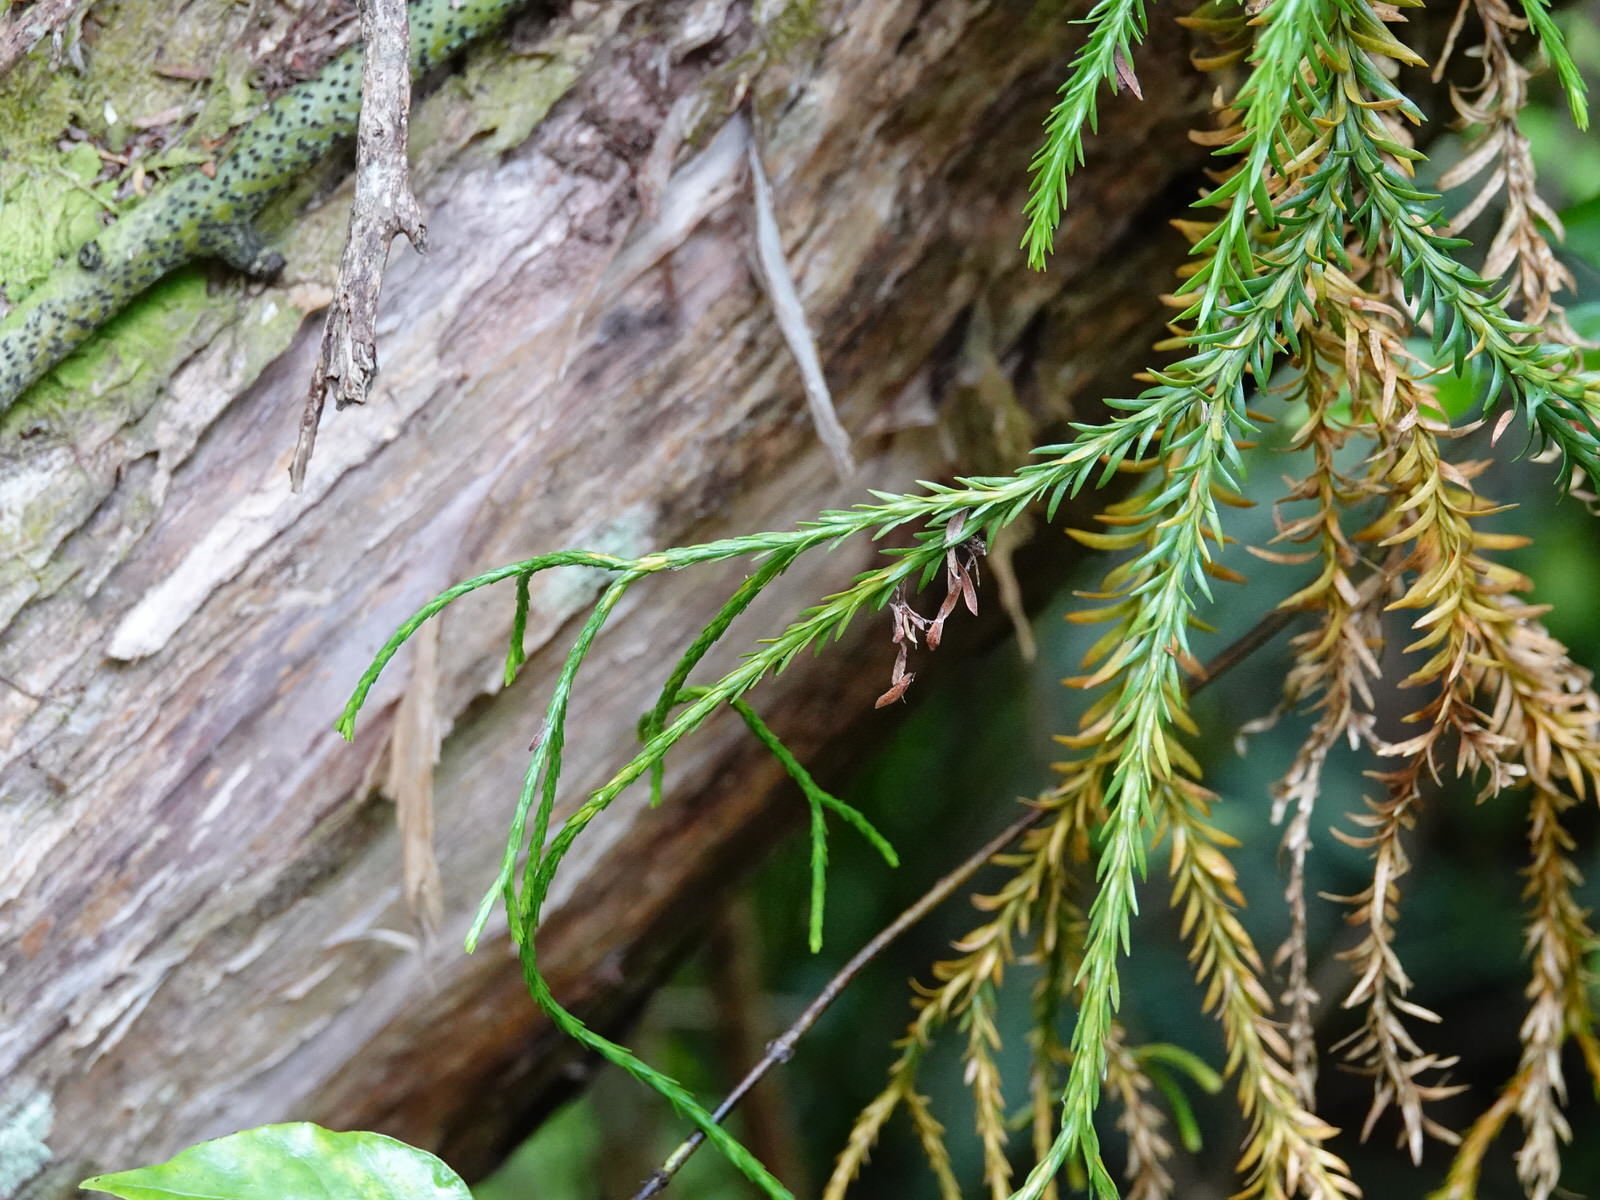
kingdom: Plantae
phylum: Tracheophyta
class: Lycopodiopsida
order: Lycopodiales
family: Lycopodiaceae
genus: Phlegmariurus
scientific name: Phlegmariurus billardierei
